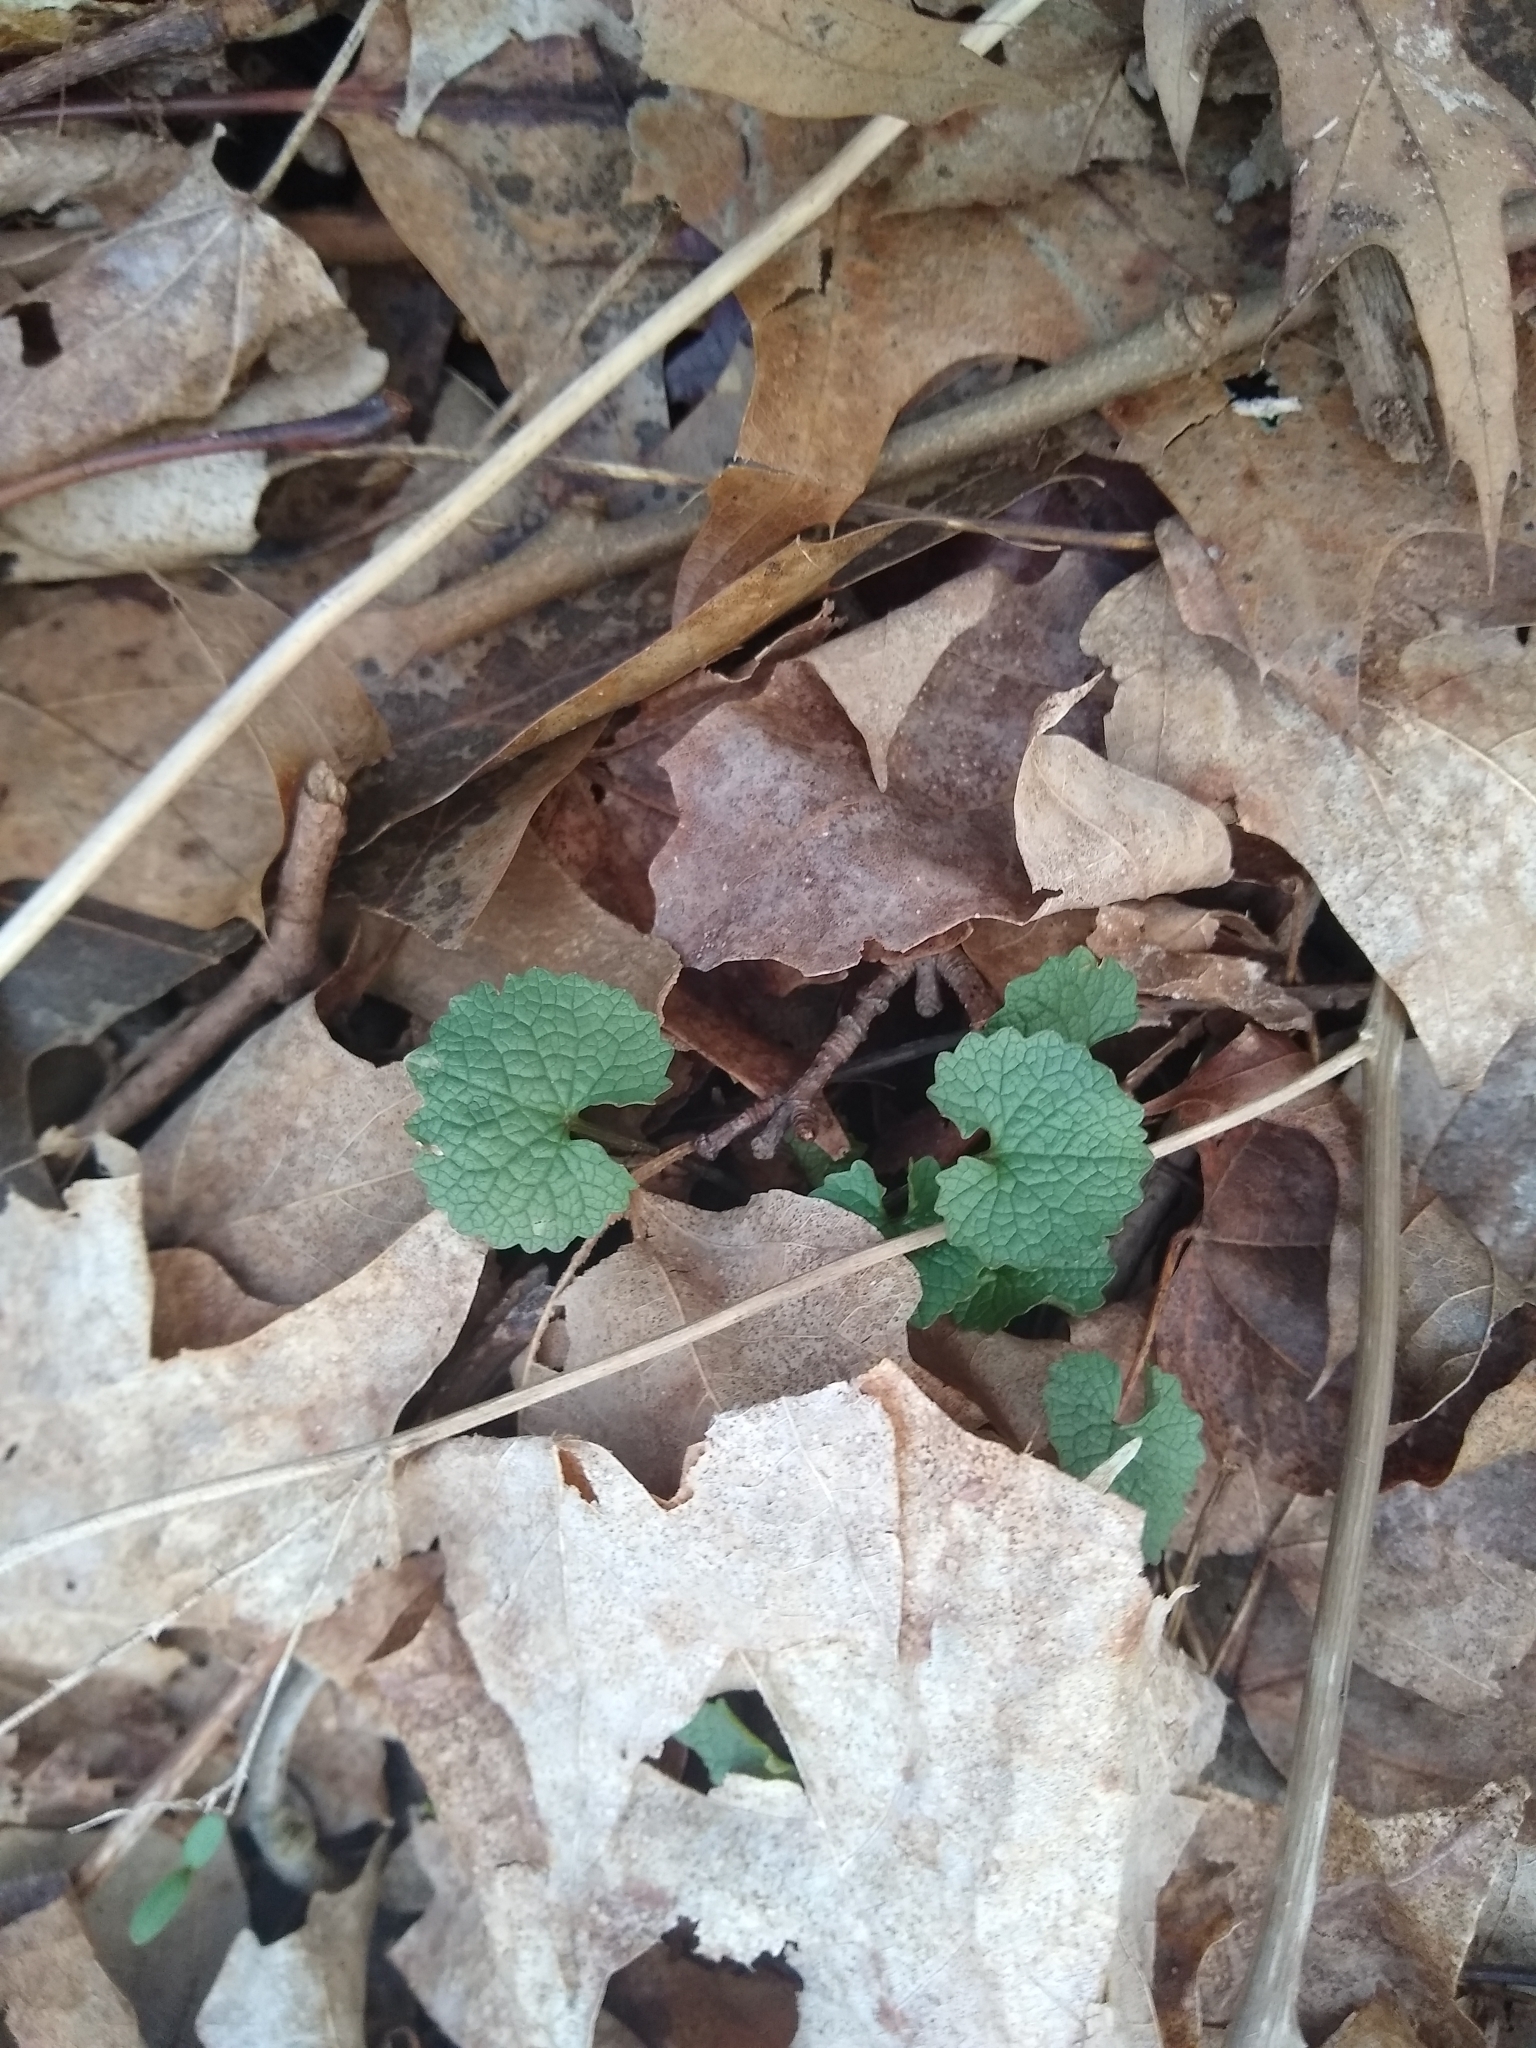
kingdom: Plantae
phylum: Tracheophyta
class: Magnoliopsida
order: Brassicales
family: Brassicaceae
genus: Alliaria
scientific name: Alliaria petiolata
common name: Garlic mustard
